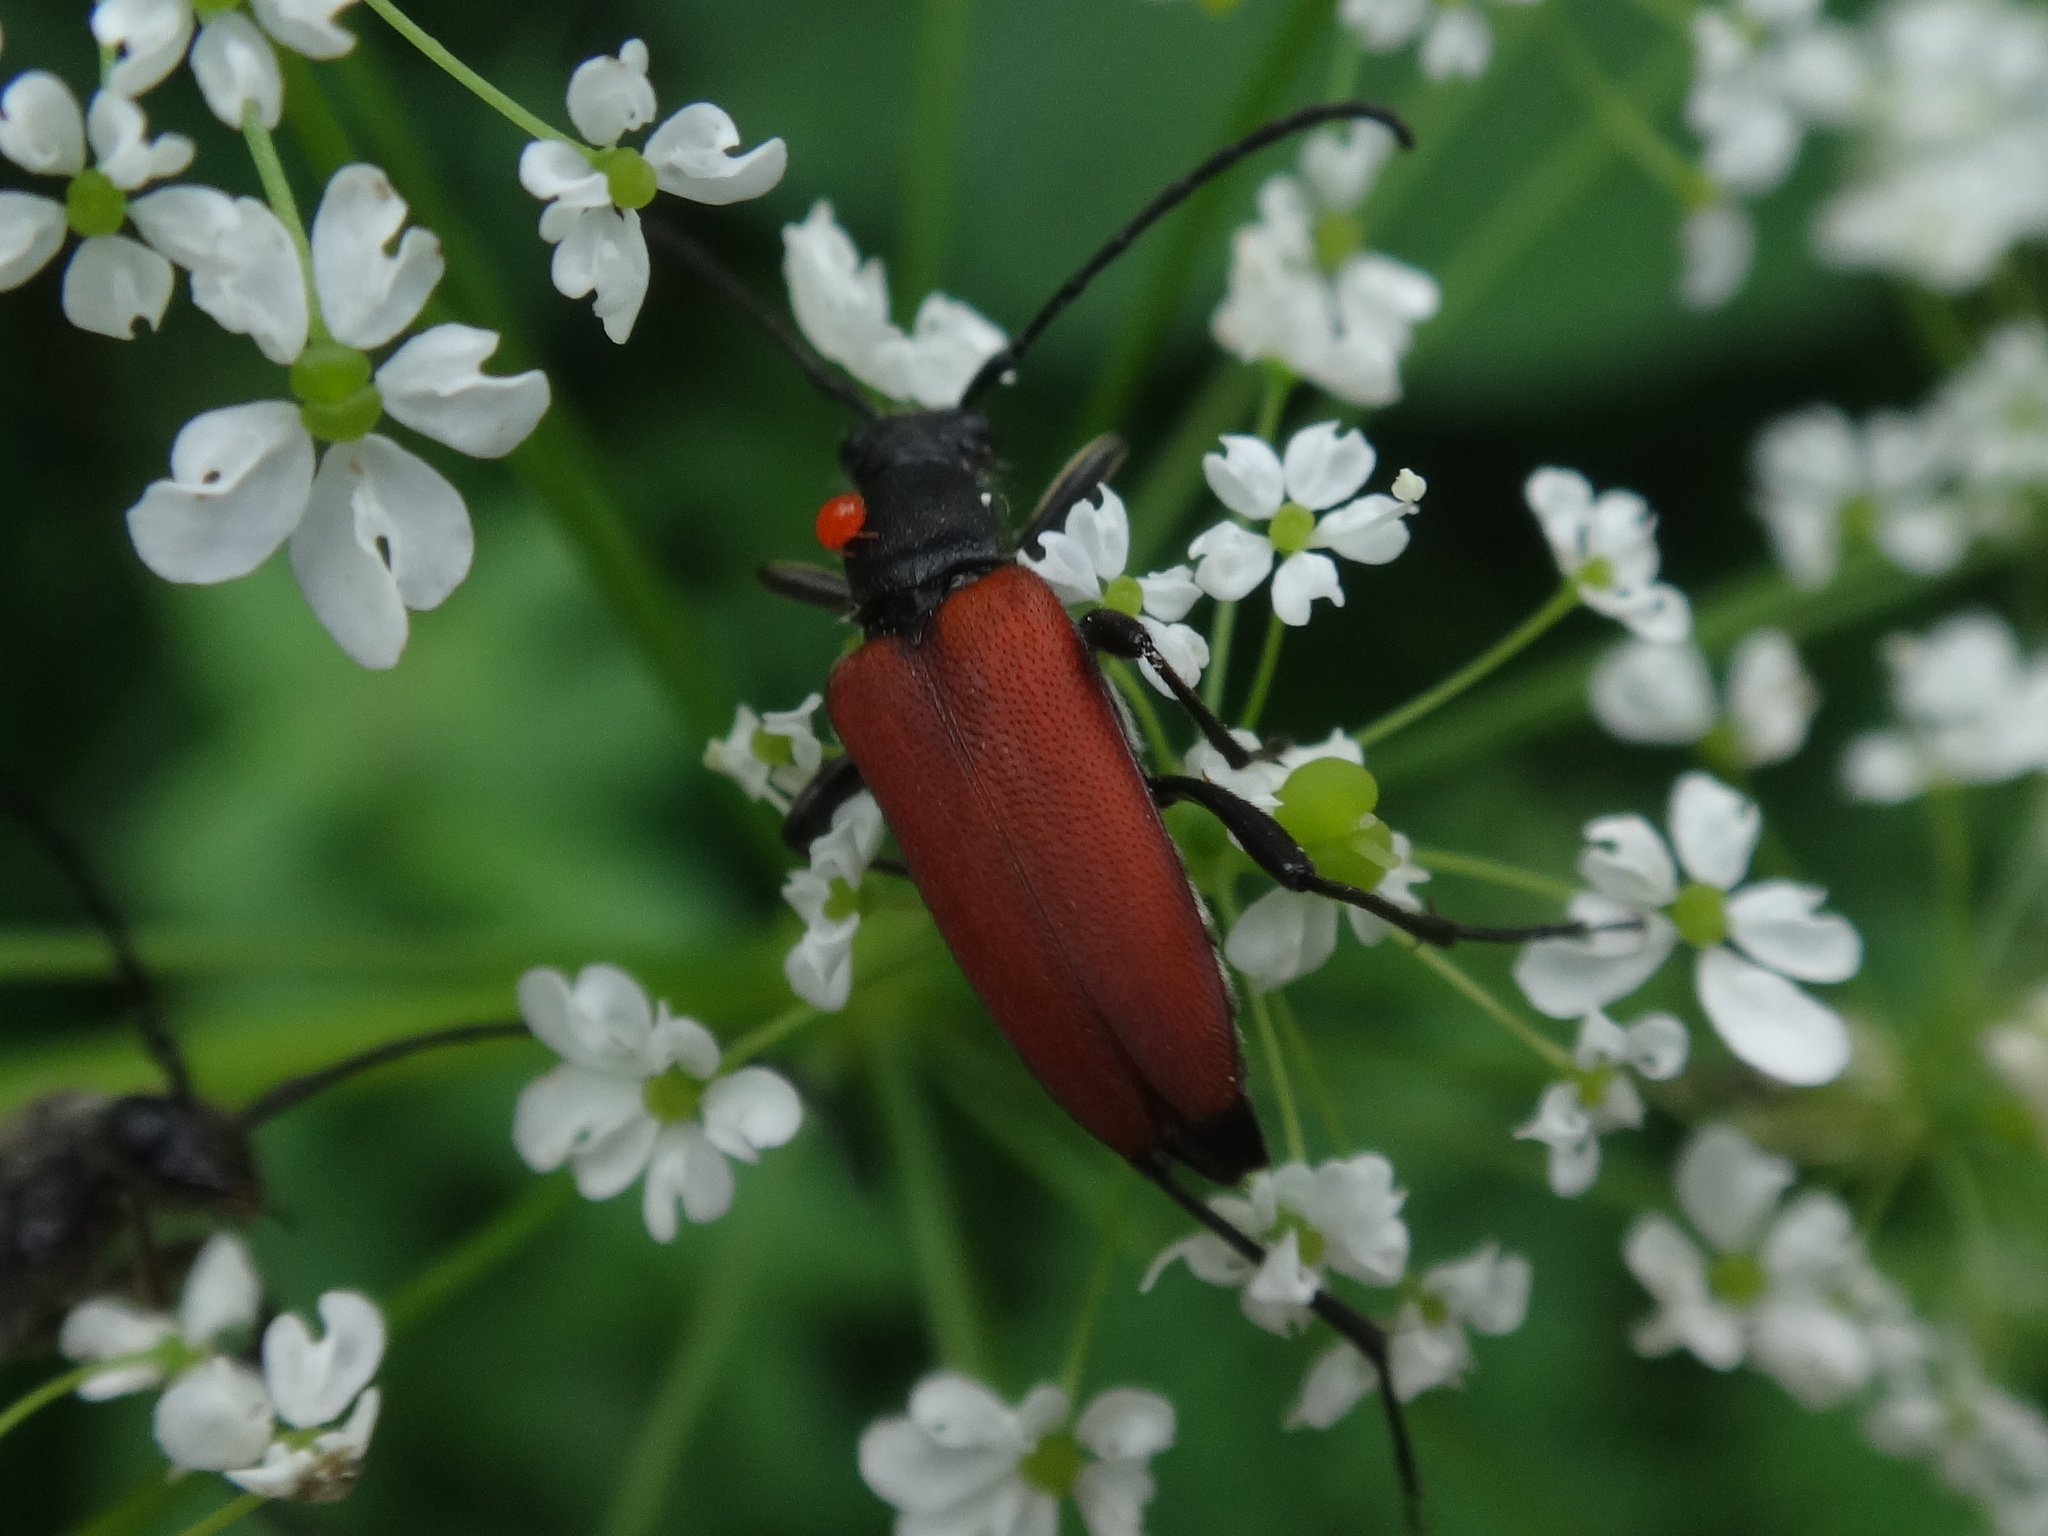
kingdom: Animalia
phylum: Arthropoda
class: Insecta
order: Coleoptera
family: Cerambycidae
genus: Anastrangalia
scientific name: Anastrangalia sanguinolenta
